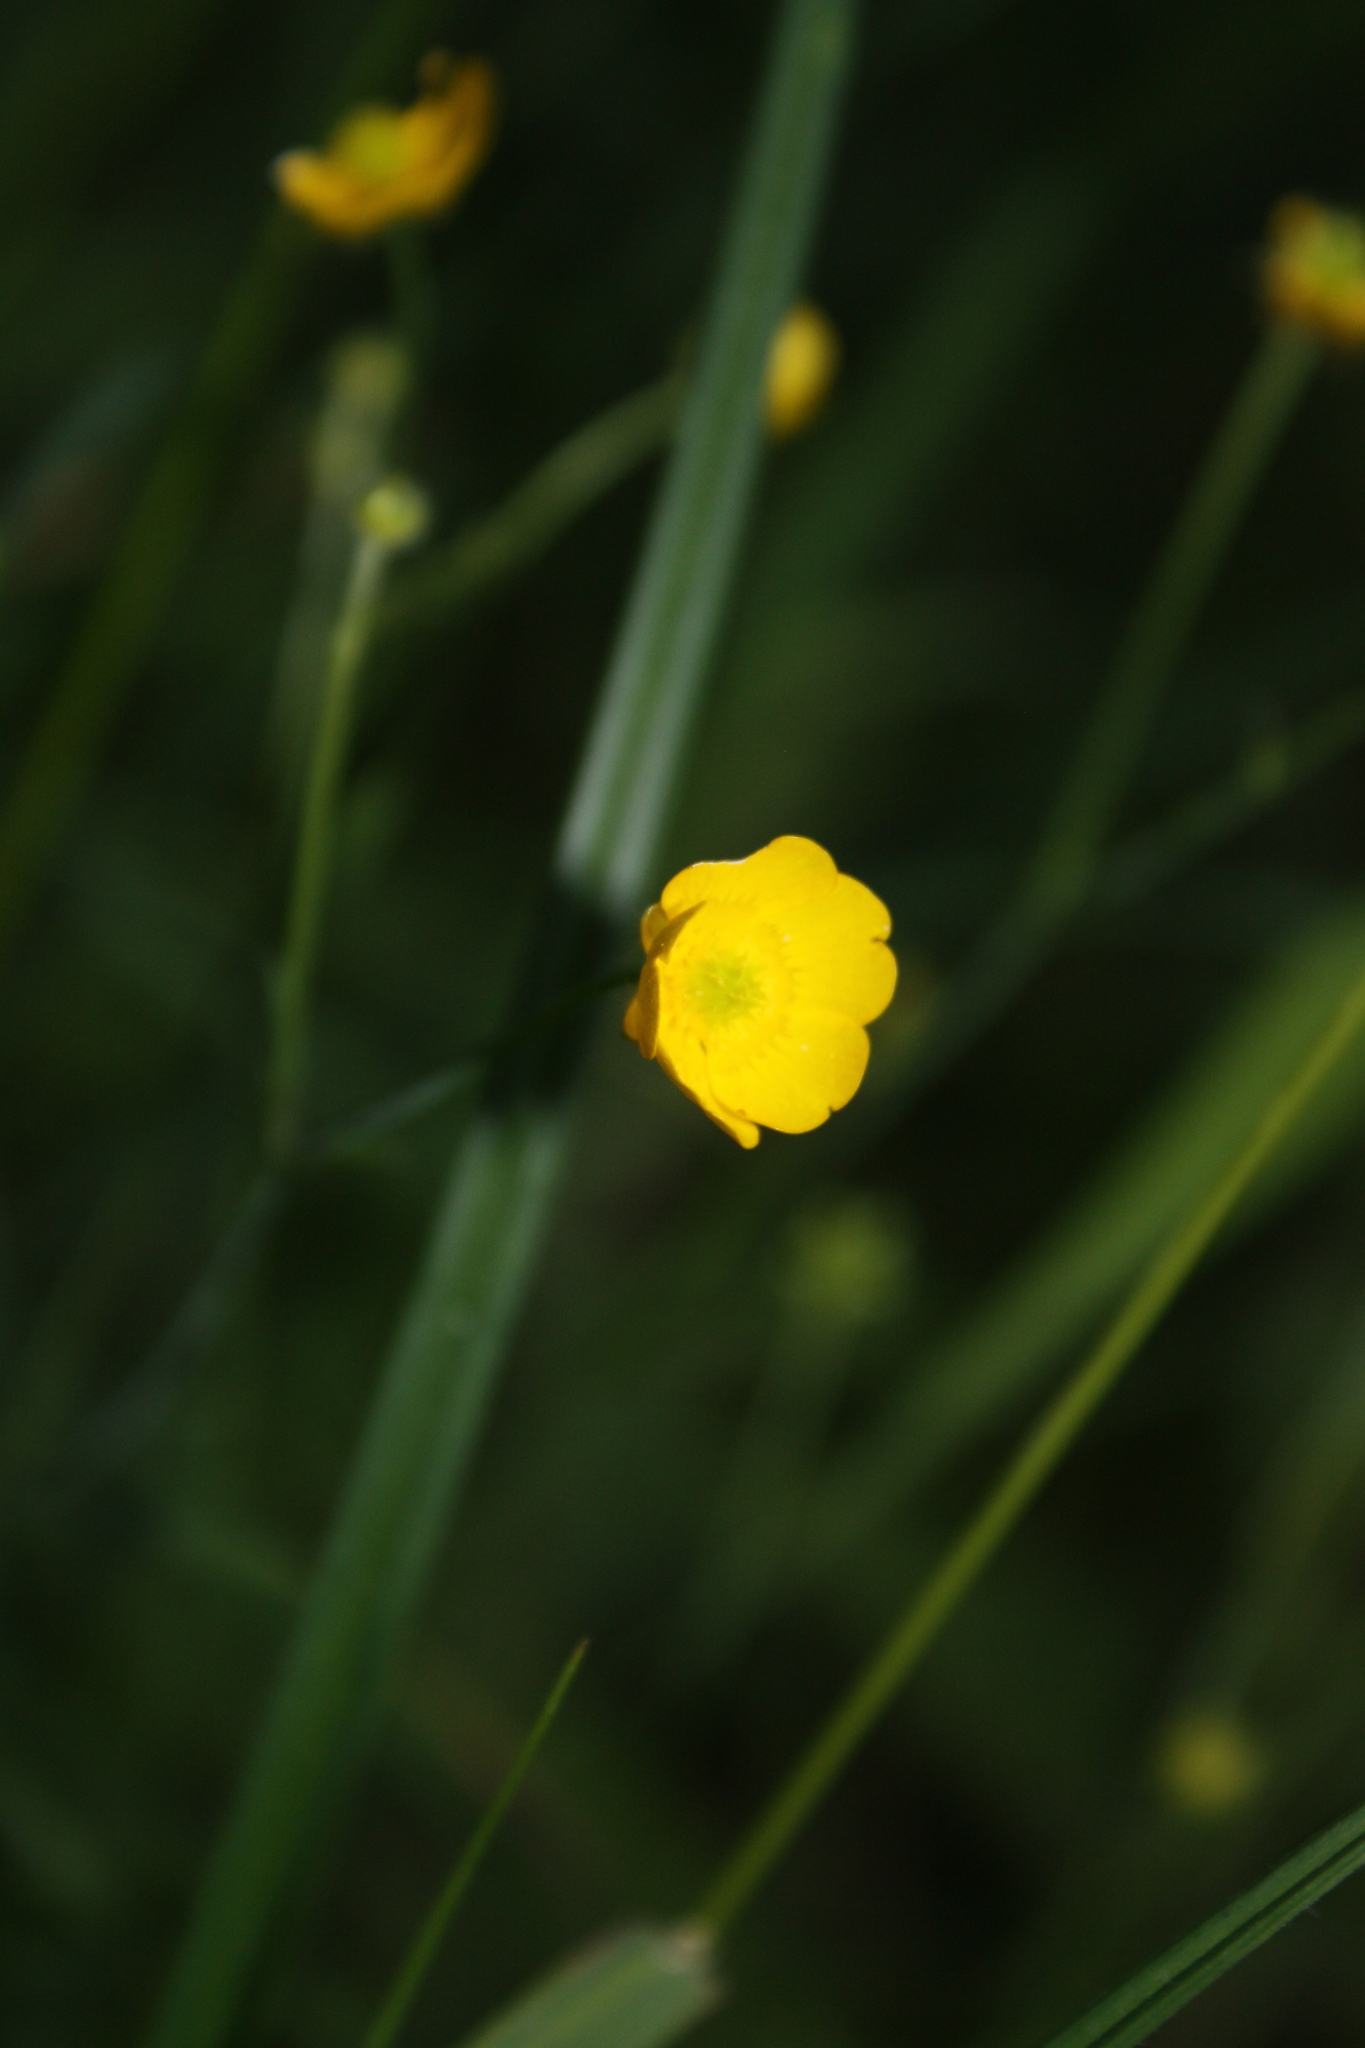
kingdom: Plantae
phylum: Tracheophyta
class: Magnoliopsida
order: Ranunculales
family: Ranunculaceae
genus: Ranunculus
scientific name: Ranunculus
